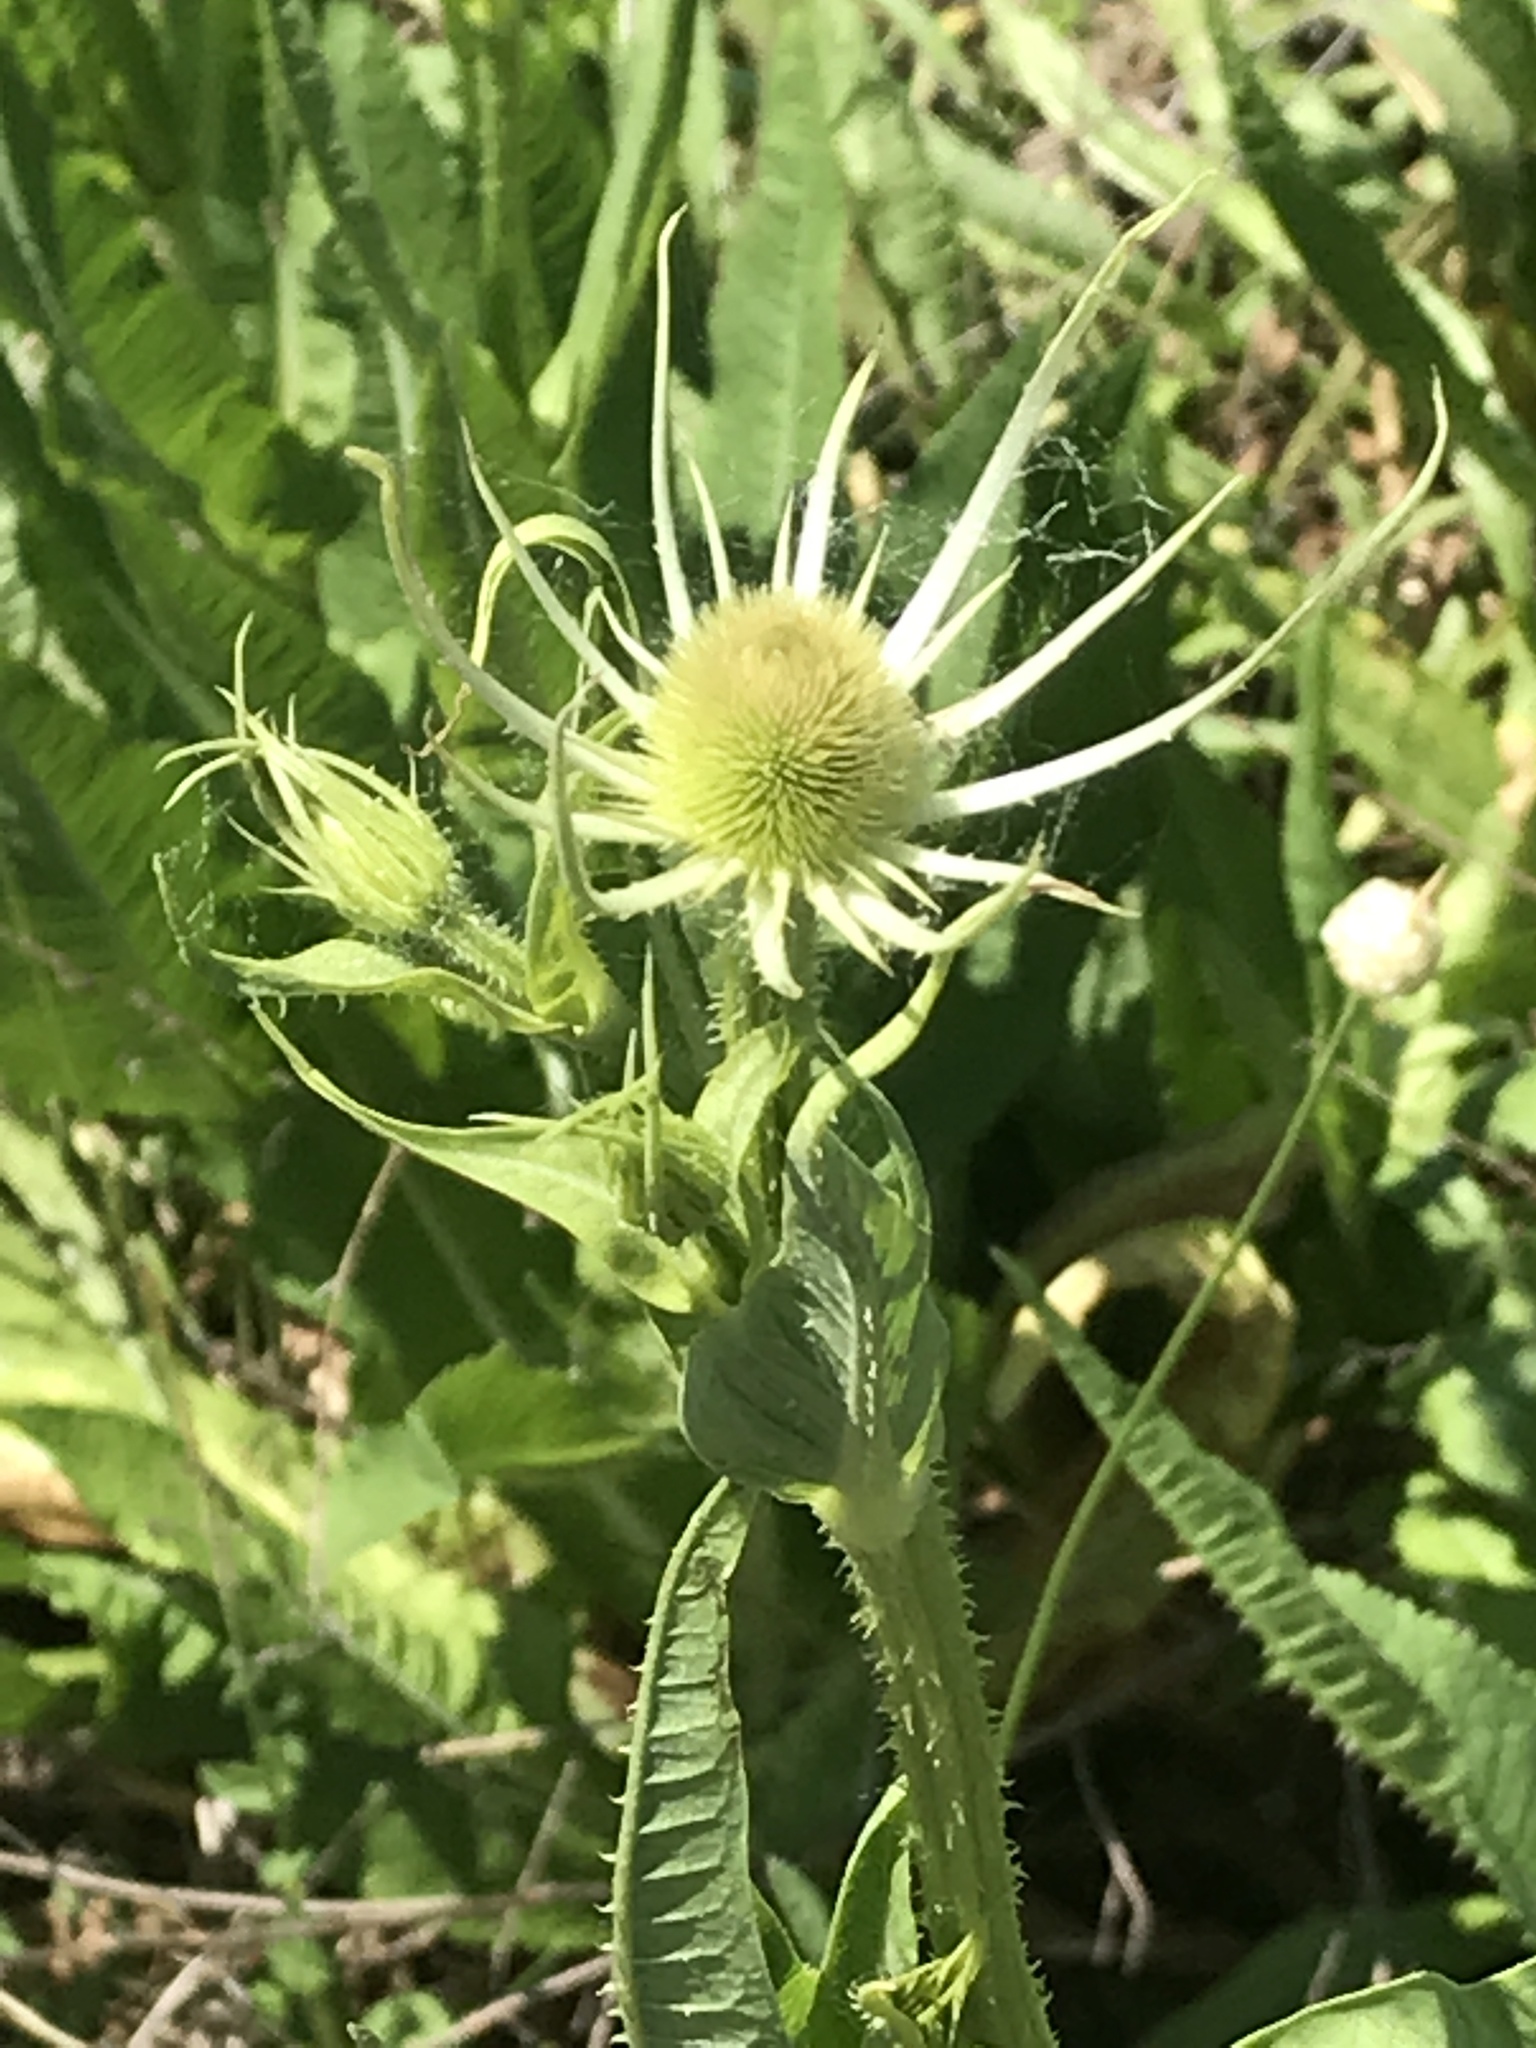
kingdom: Plantae
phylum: Tracheophyta
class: Magnoliopsida
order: Dipsacales
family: Caprifoliaceae
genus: Dipsacus
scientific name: Dipsacus fullonum
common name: Teasel
